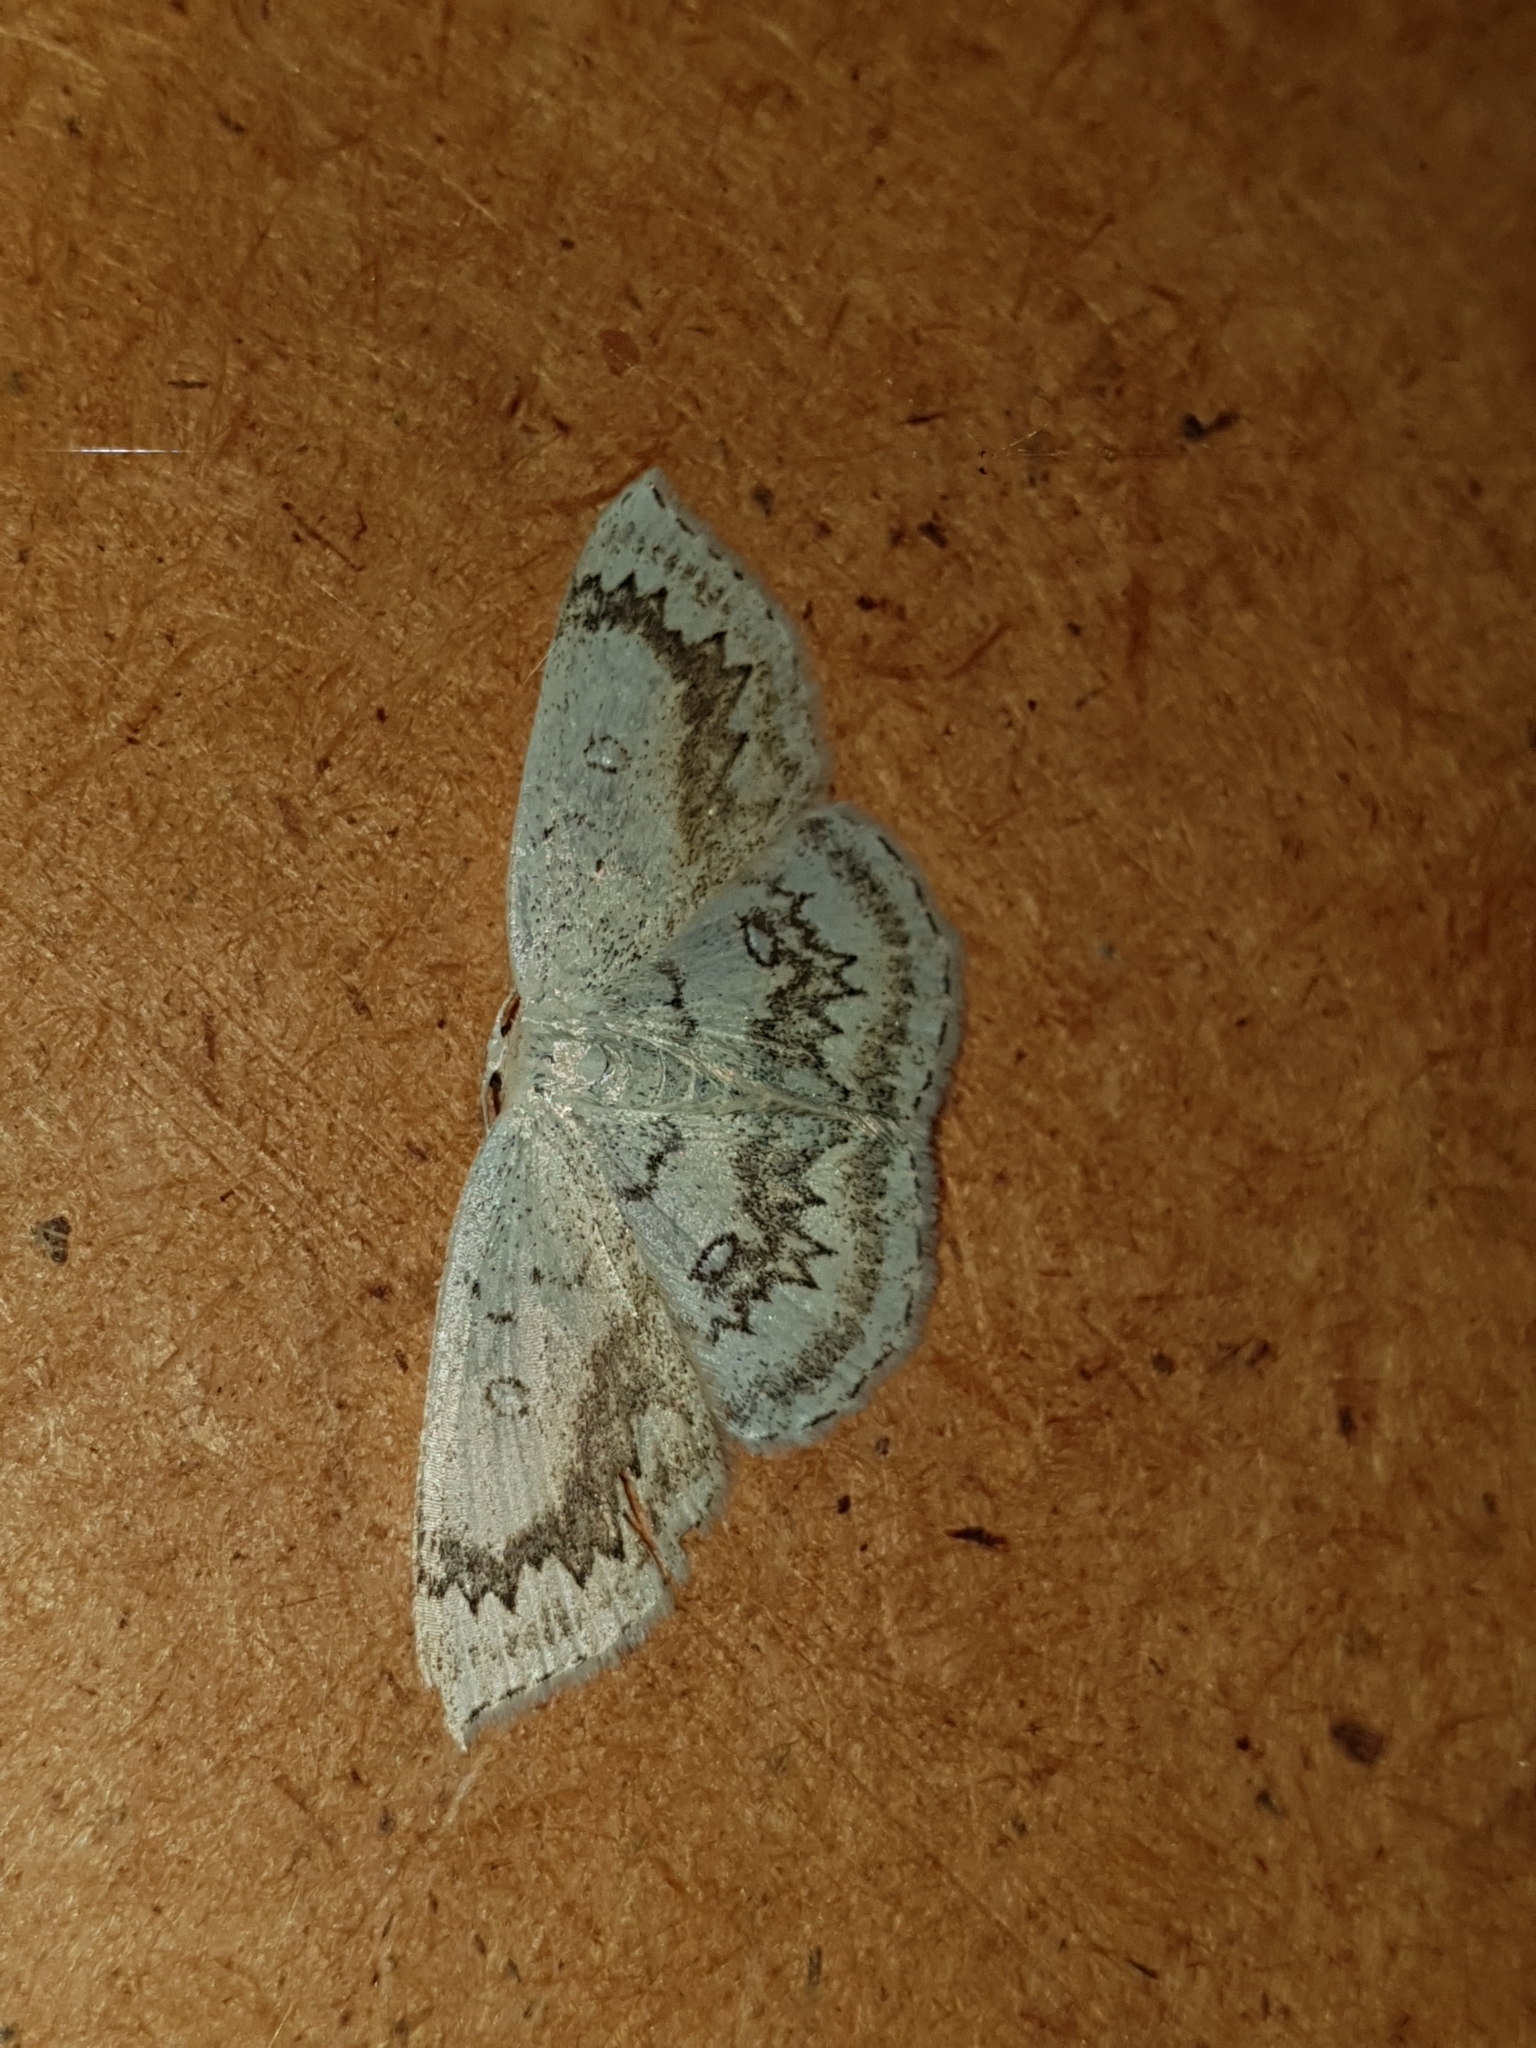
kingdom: Animalia
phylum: Arthropoda
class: Insecta
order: Lepidoptera
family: Geometridae
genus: Cyclophora
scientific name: Cyclophora annularia
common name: Mocha
